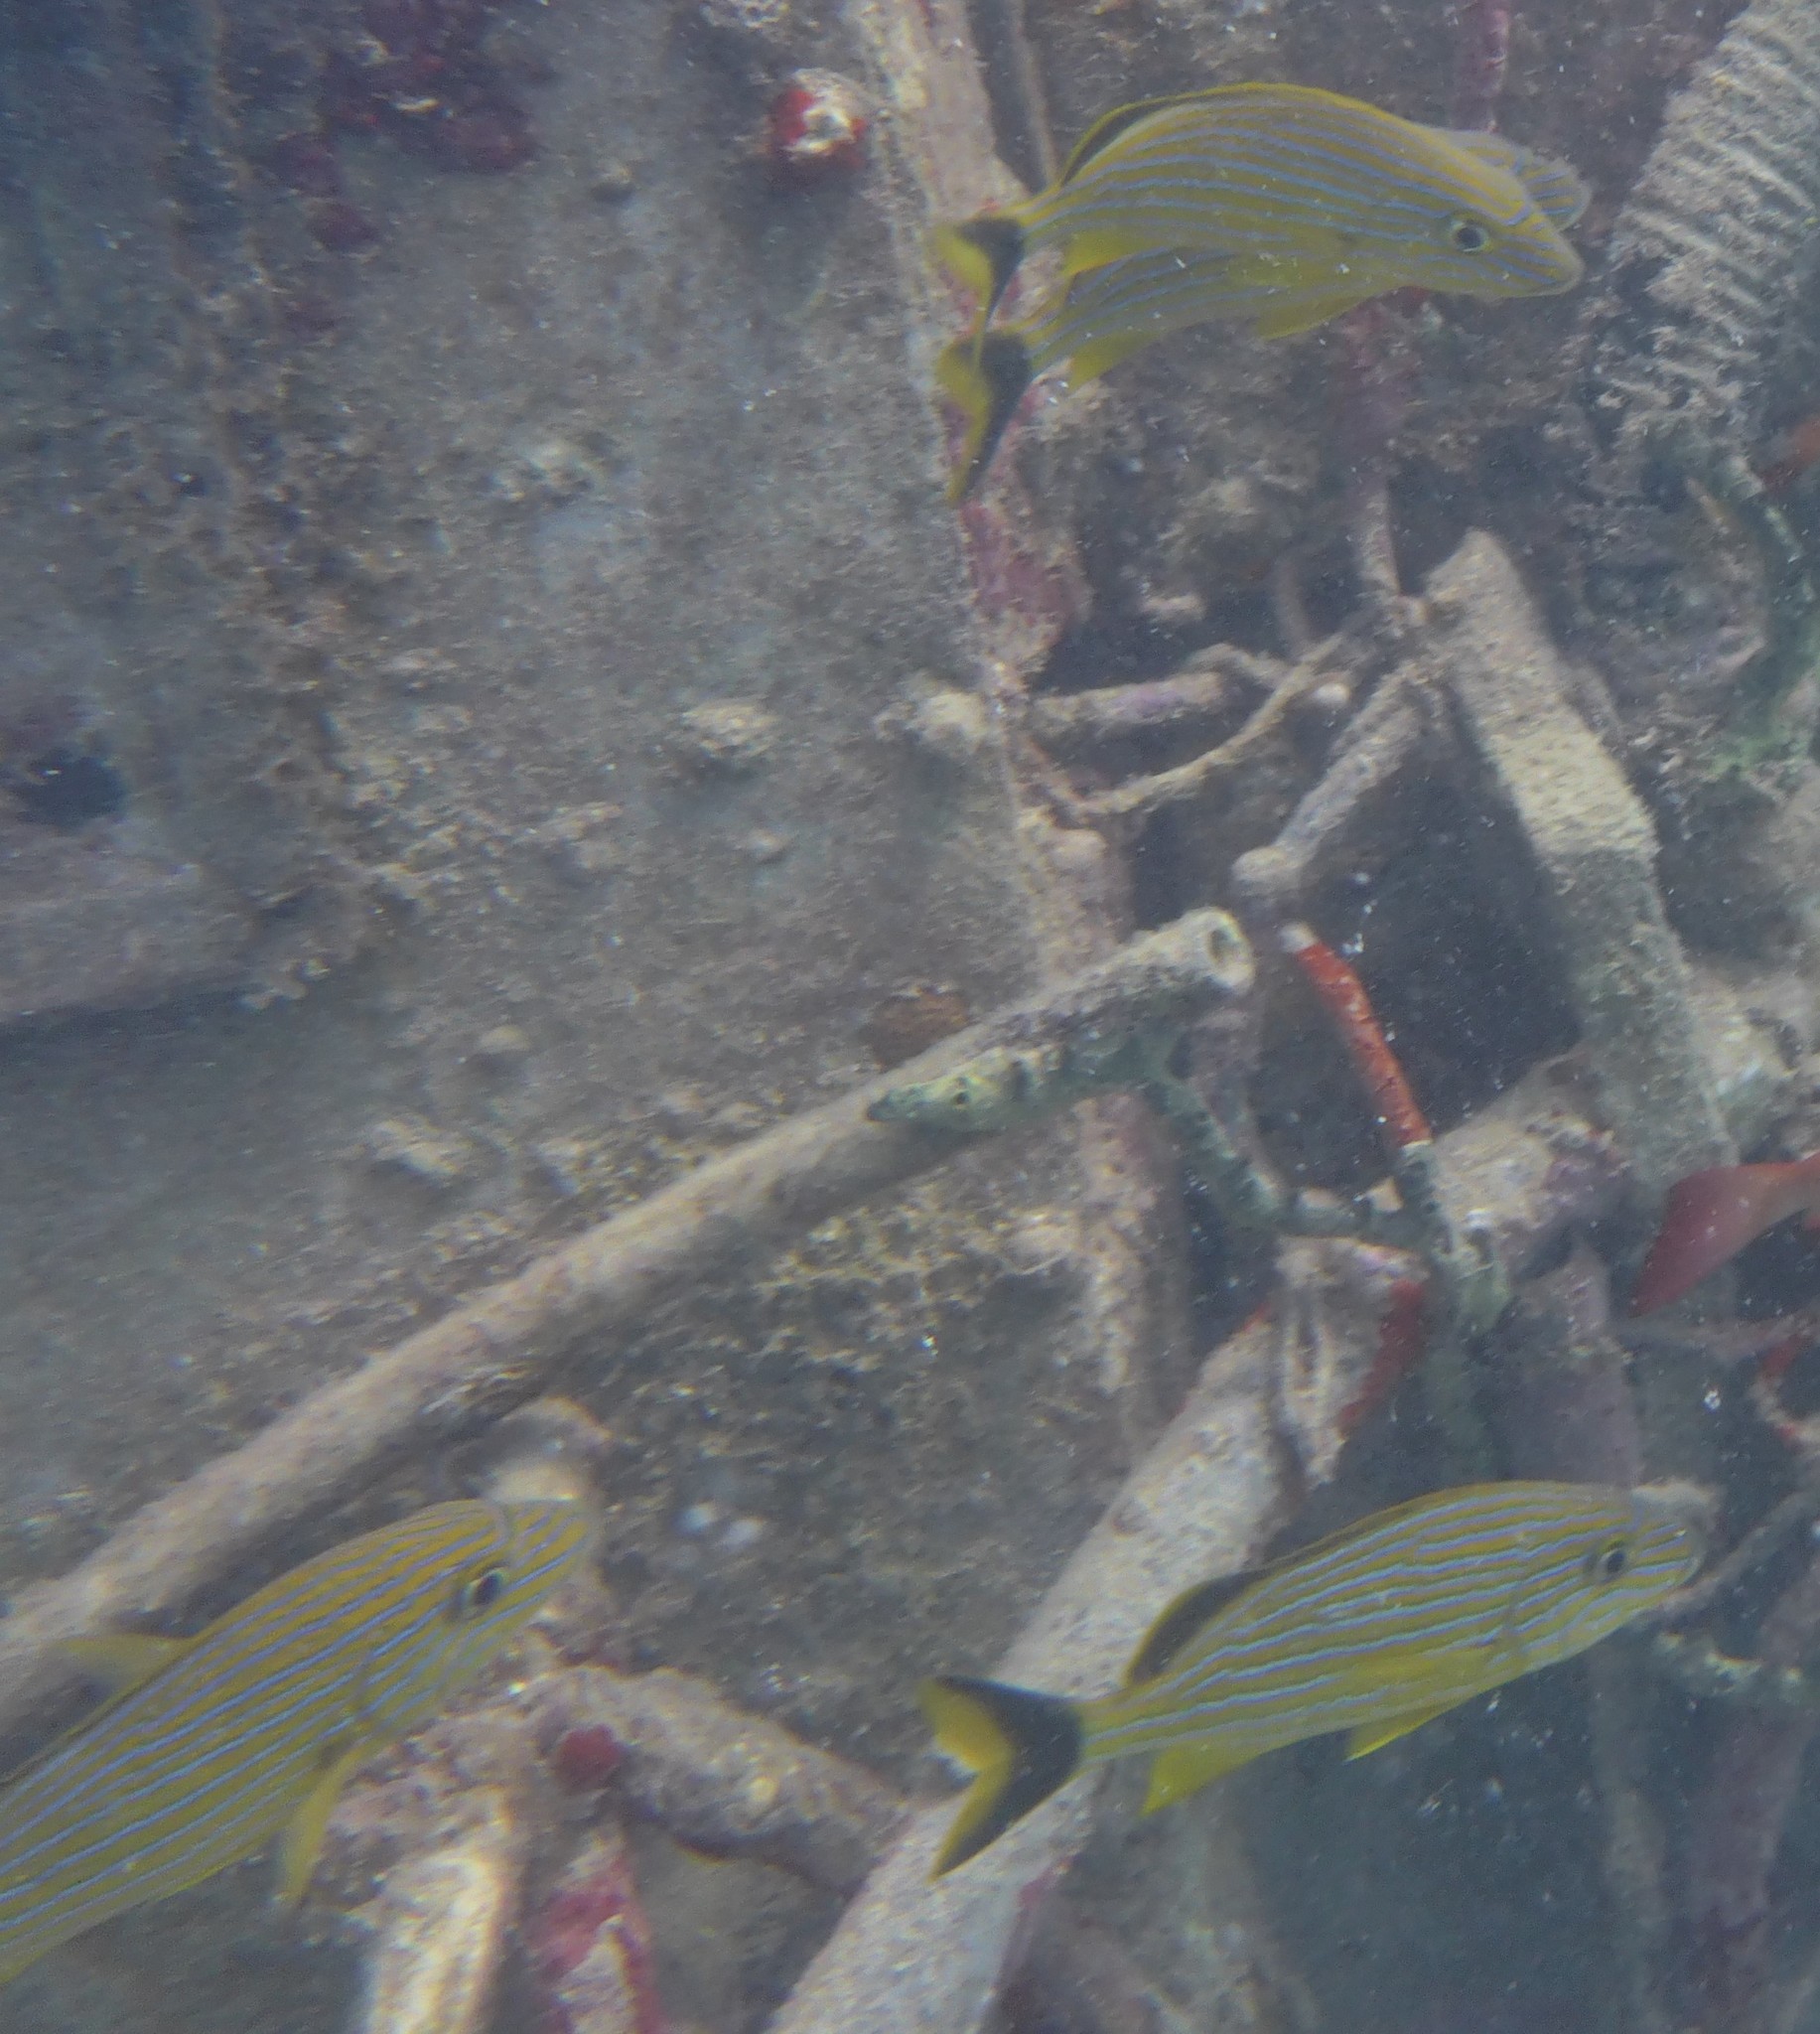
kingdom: Animalia
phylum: Chordata
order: Perciformes
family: Haemulidae
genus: Haemulon
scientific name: Haemulon sciurus
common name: Bluestriped grunt
